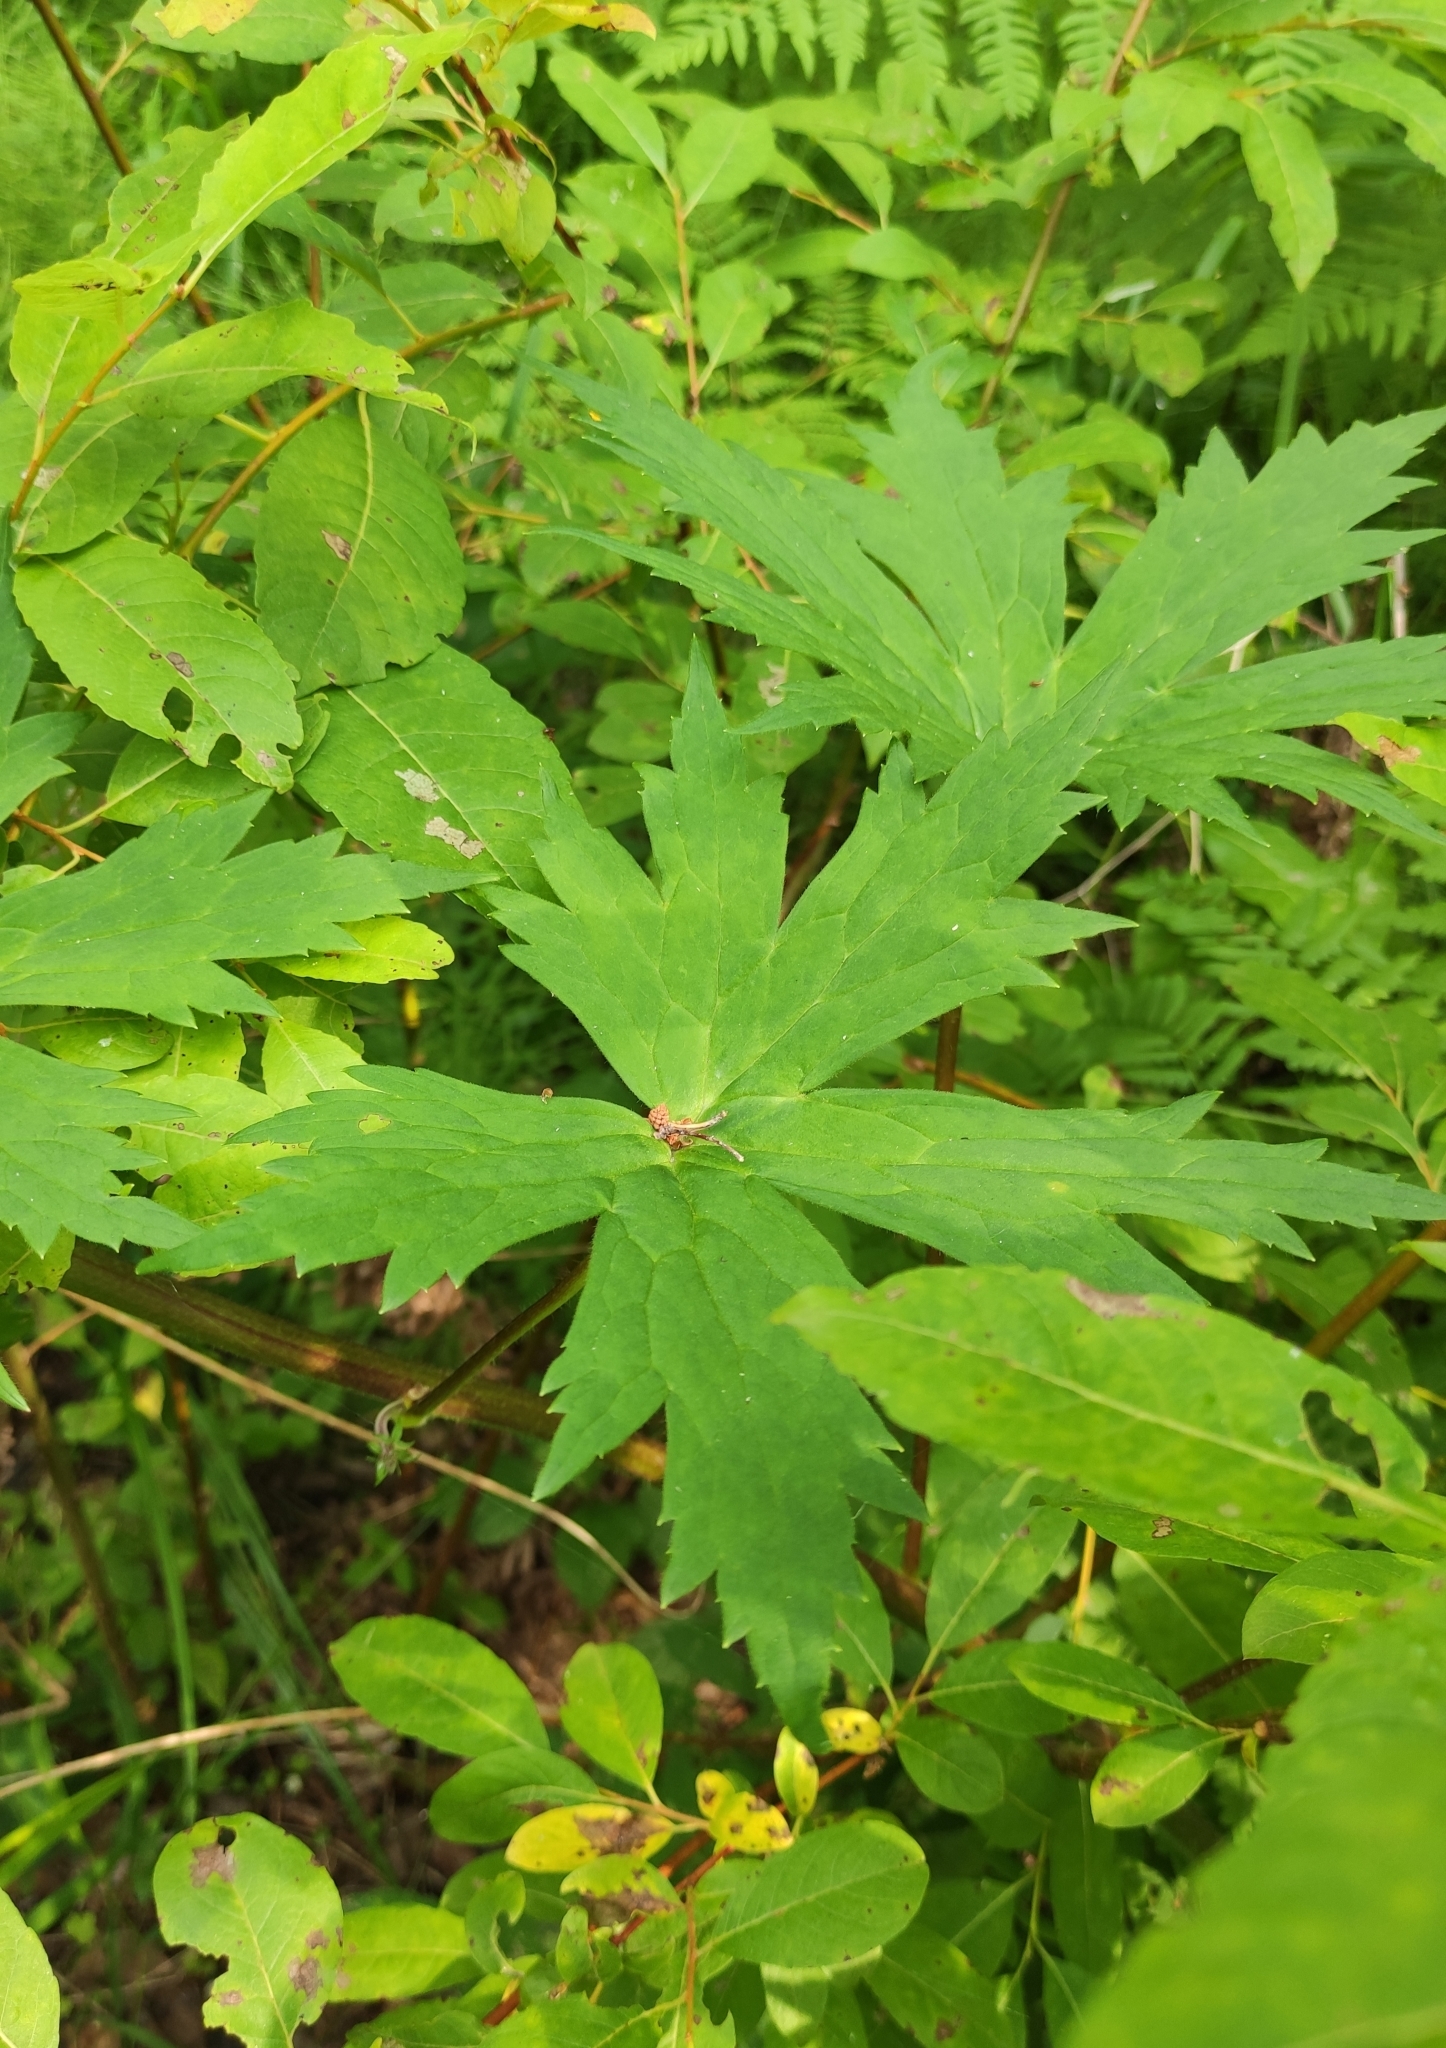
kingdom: Plantae
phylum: Tracheophyta
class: Magnoliopsida
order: Ranunculales
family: Ranunculaceae
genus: Aconitum
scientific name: Aconitum septentrionale
